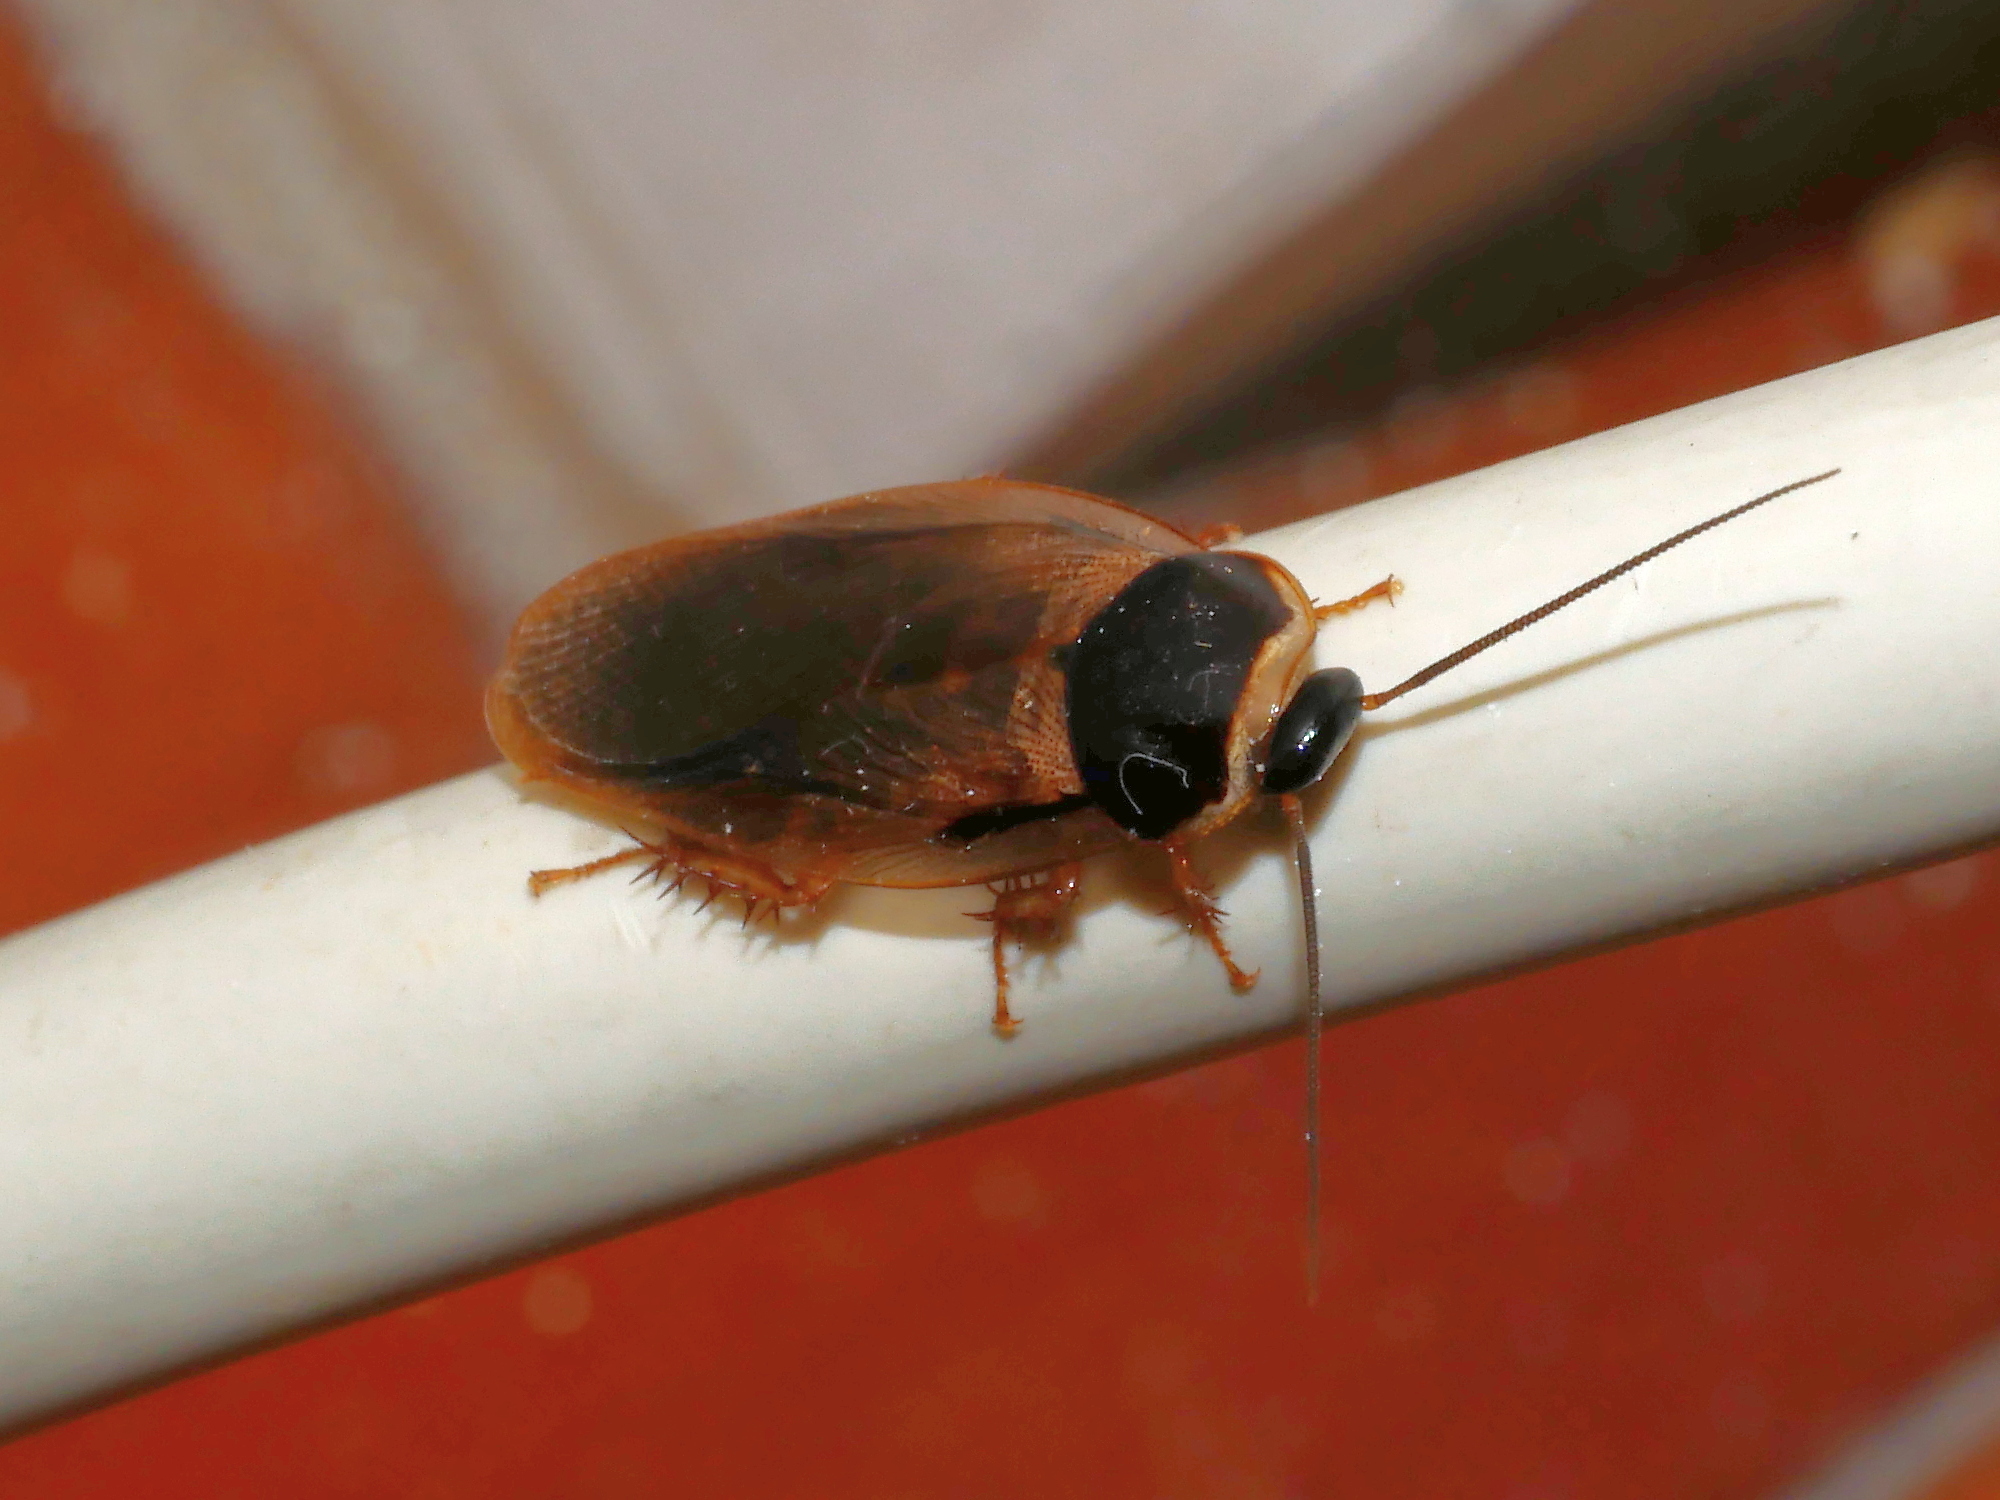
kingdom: Animalia
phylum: Arthropoda
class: Insecta
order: Blattodea
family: Blaberidae
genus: Pycnoscelus
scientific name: Pycnoscelus indicus
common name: Burrowing cockroach
